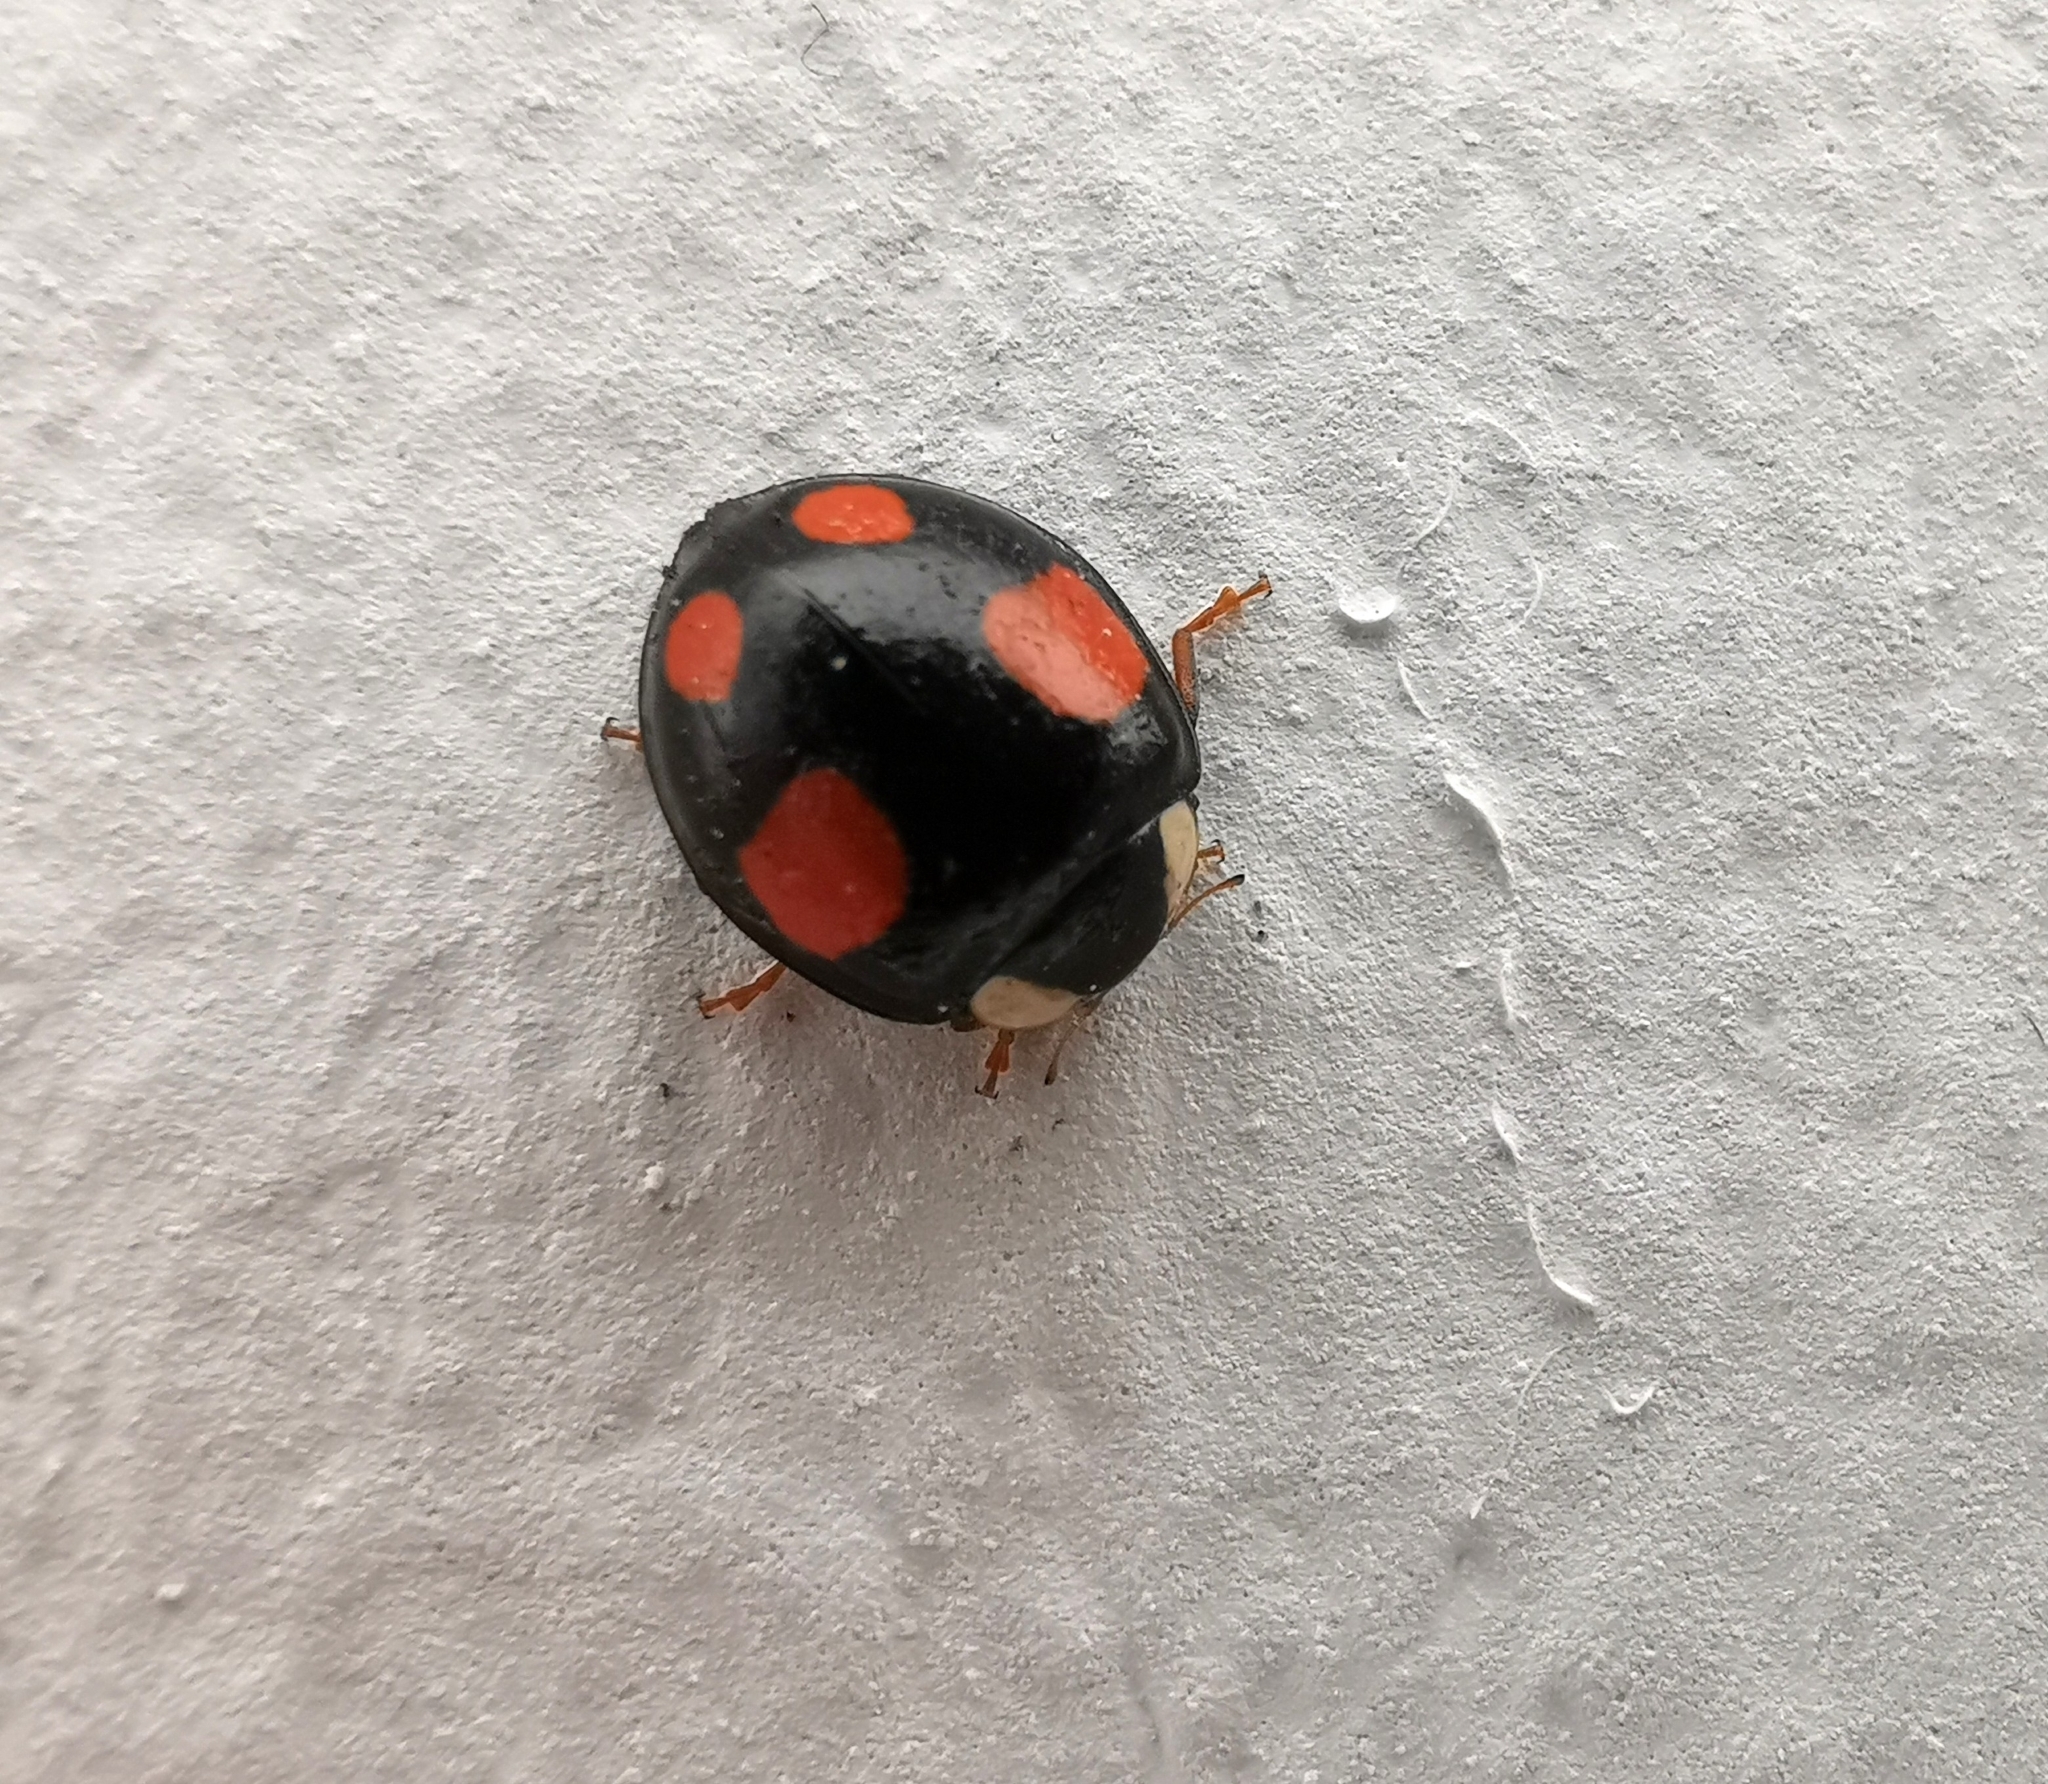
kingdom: Animalia
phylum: Arthropoda
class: Insecta
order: Coleoptera
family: Coccinellidae
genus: Harmonia
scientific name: Harmonia axyridis
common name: Harlequin ladybird
